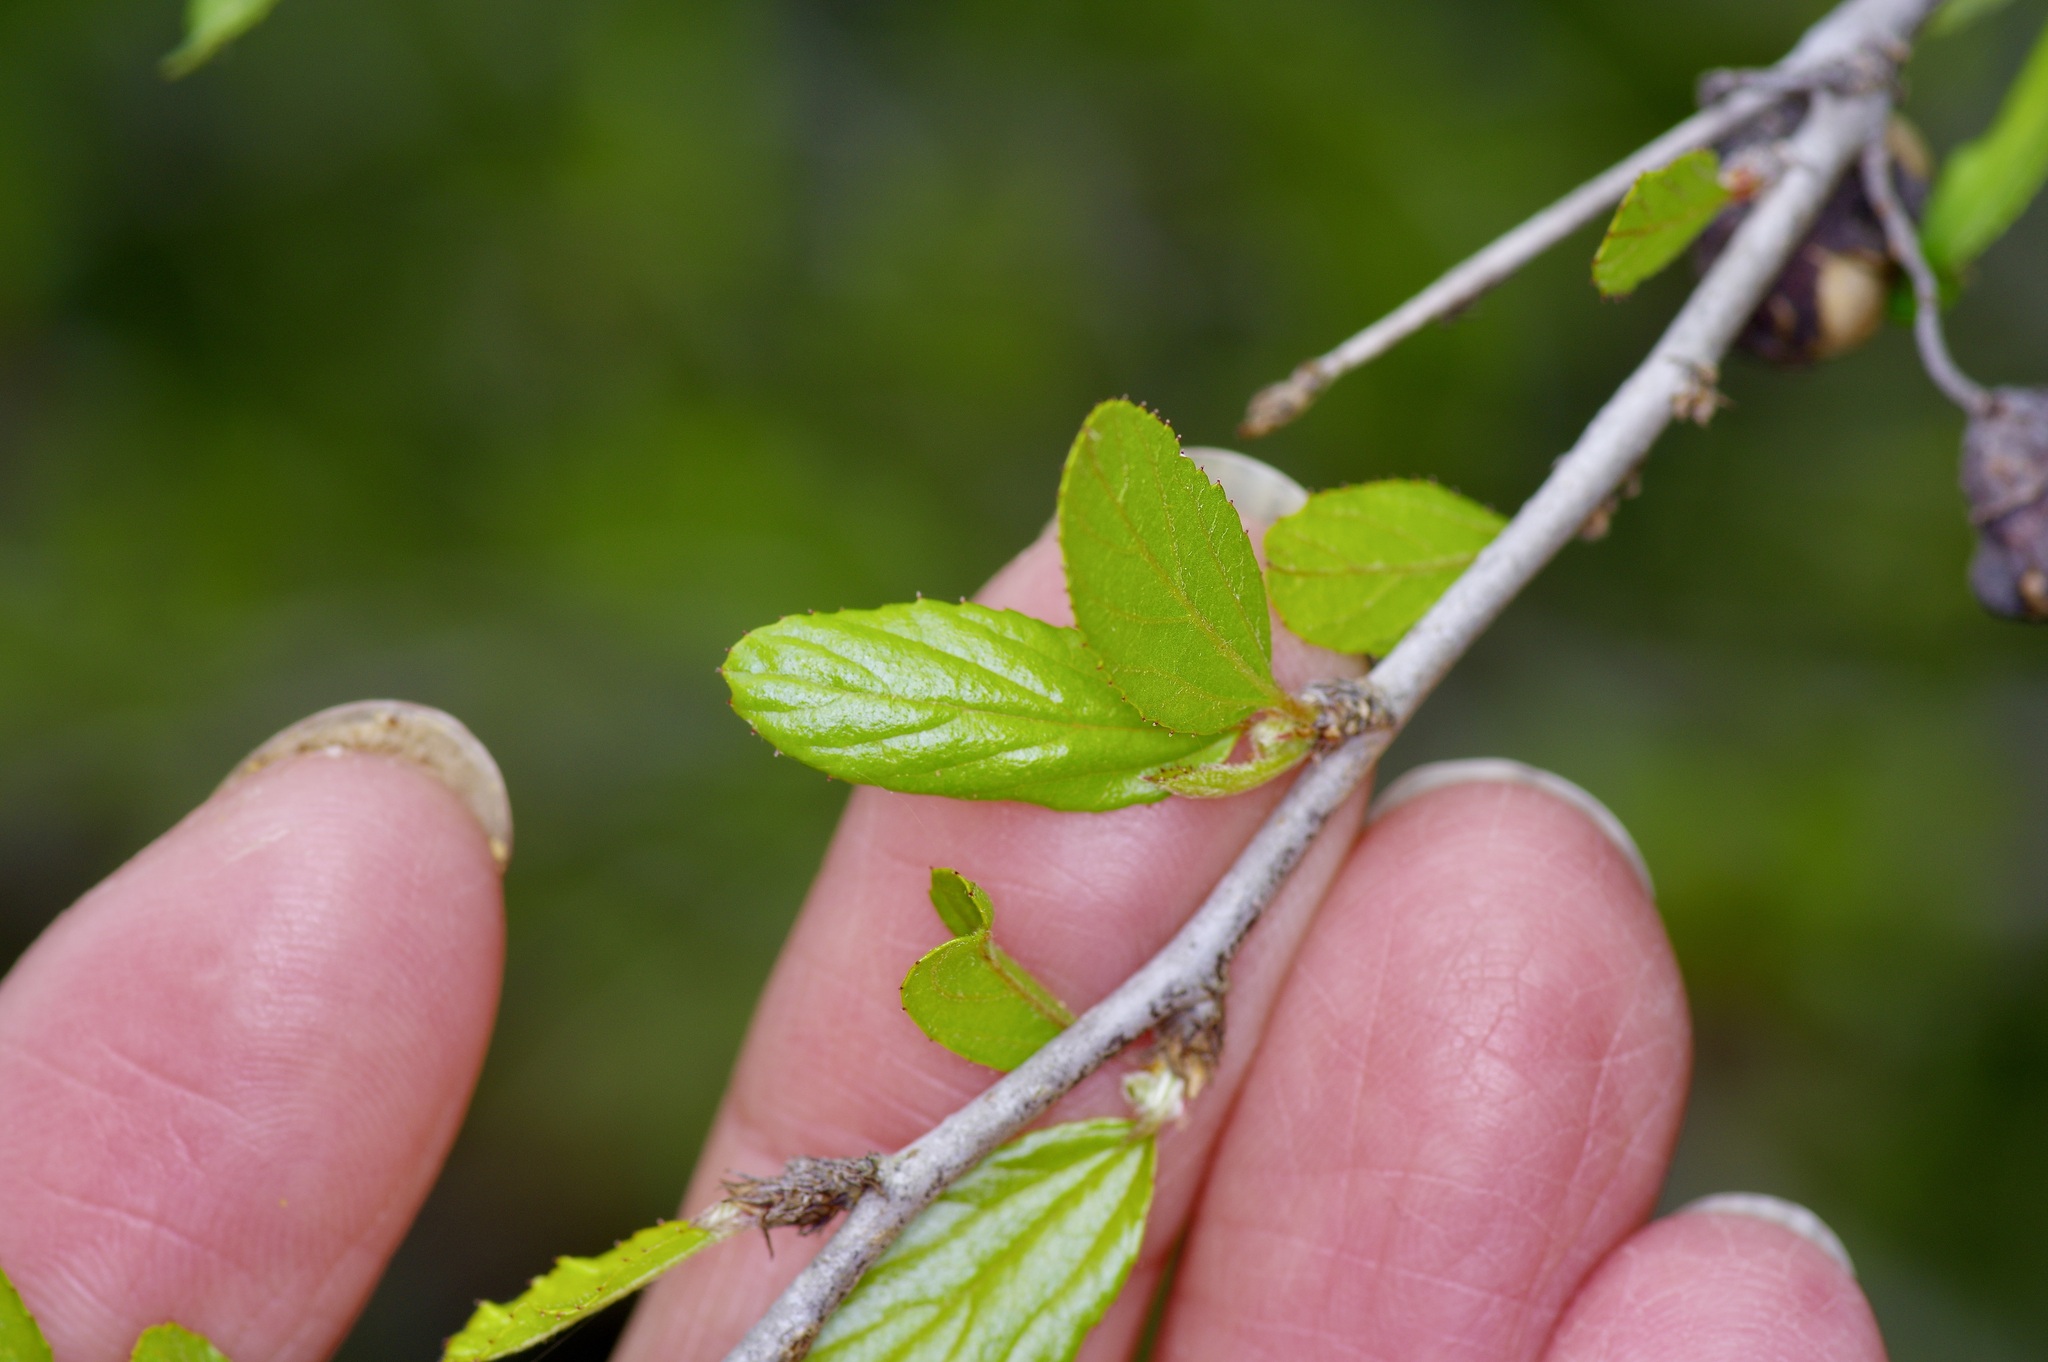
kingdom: Plantae
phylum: Tracheophyta
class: Magnoliopsida
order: Rosales
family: Rhamnaceae
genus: Colubrina
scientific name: Colubrina texensis
